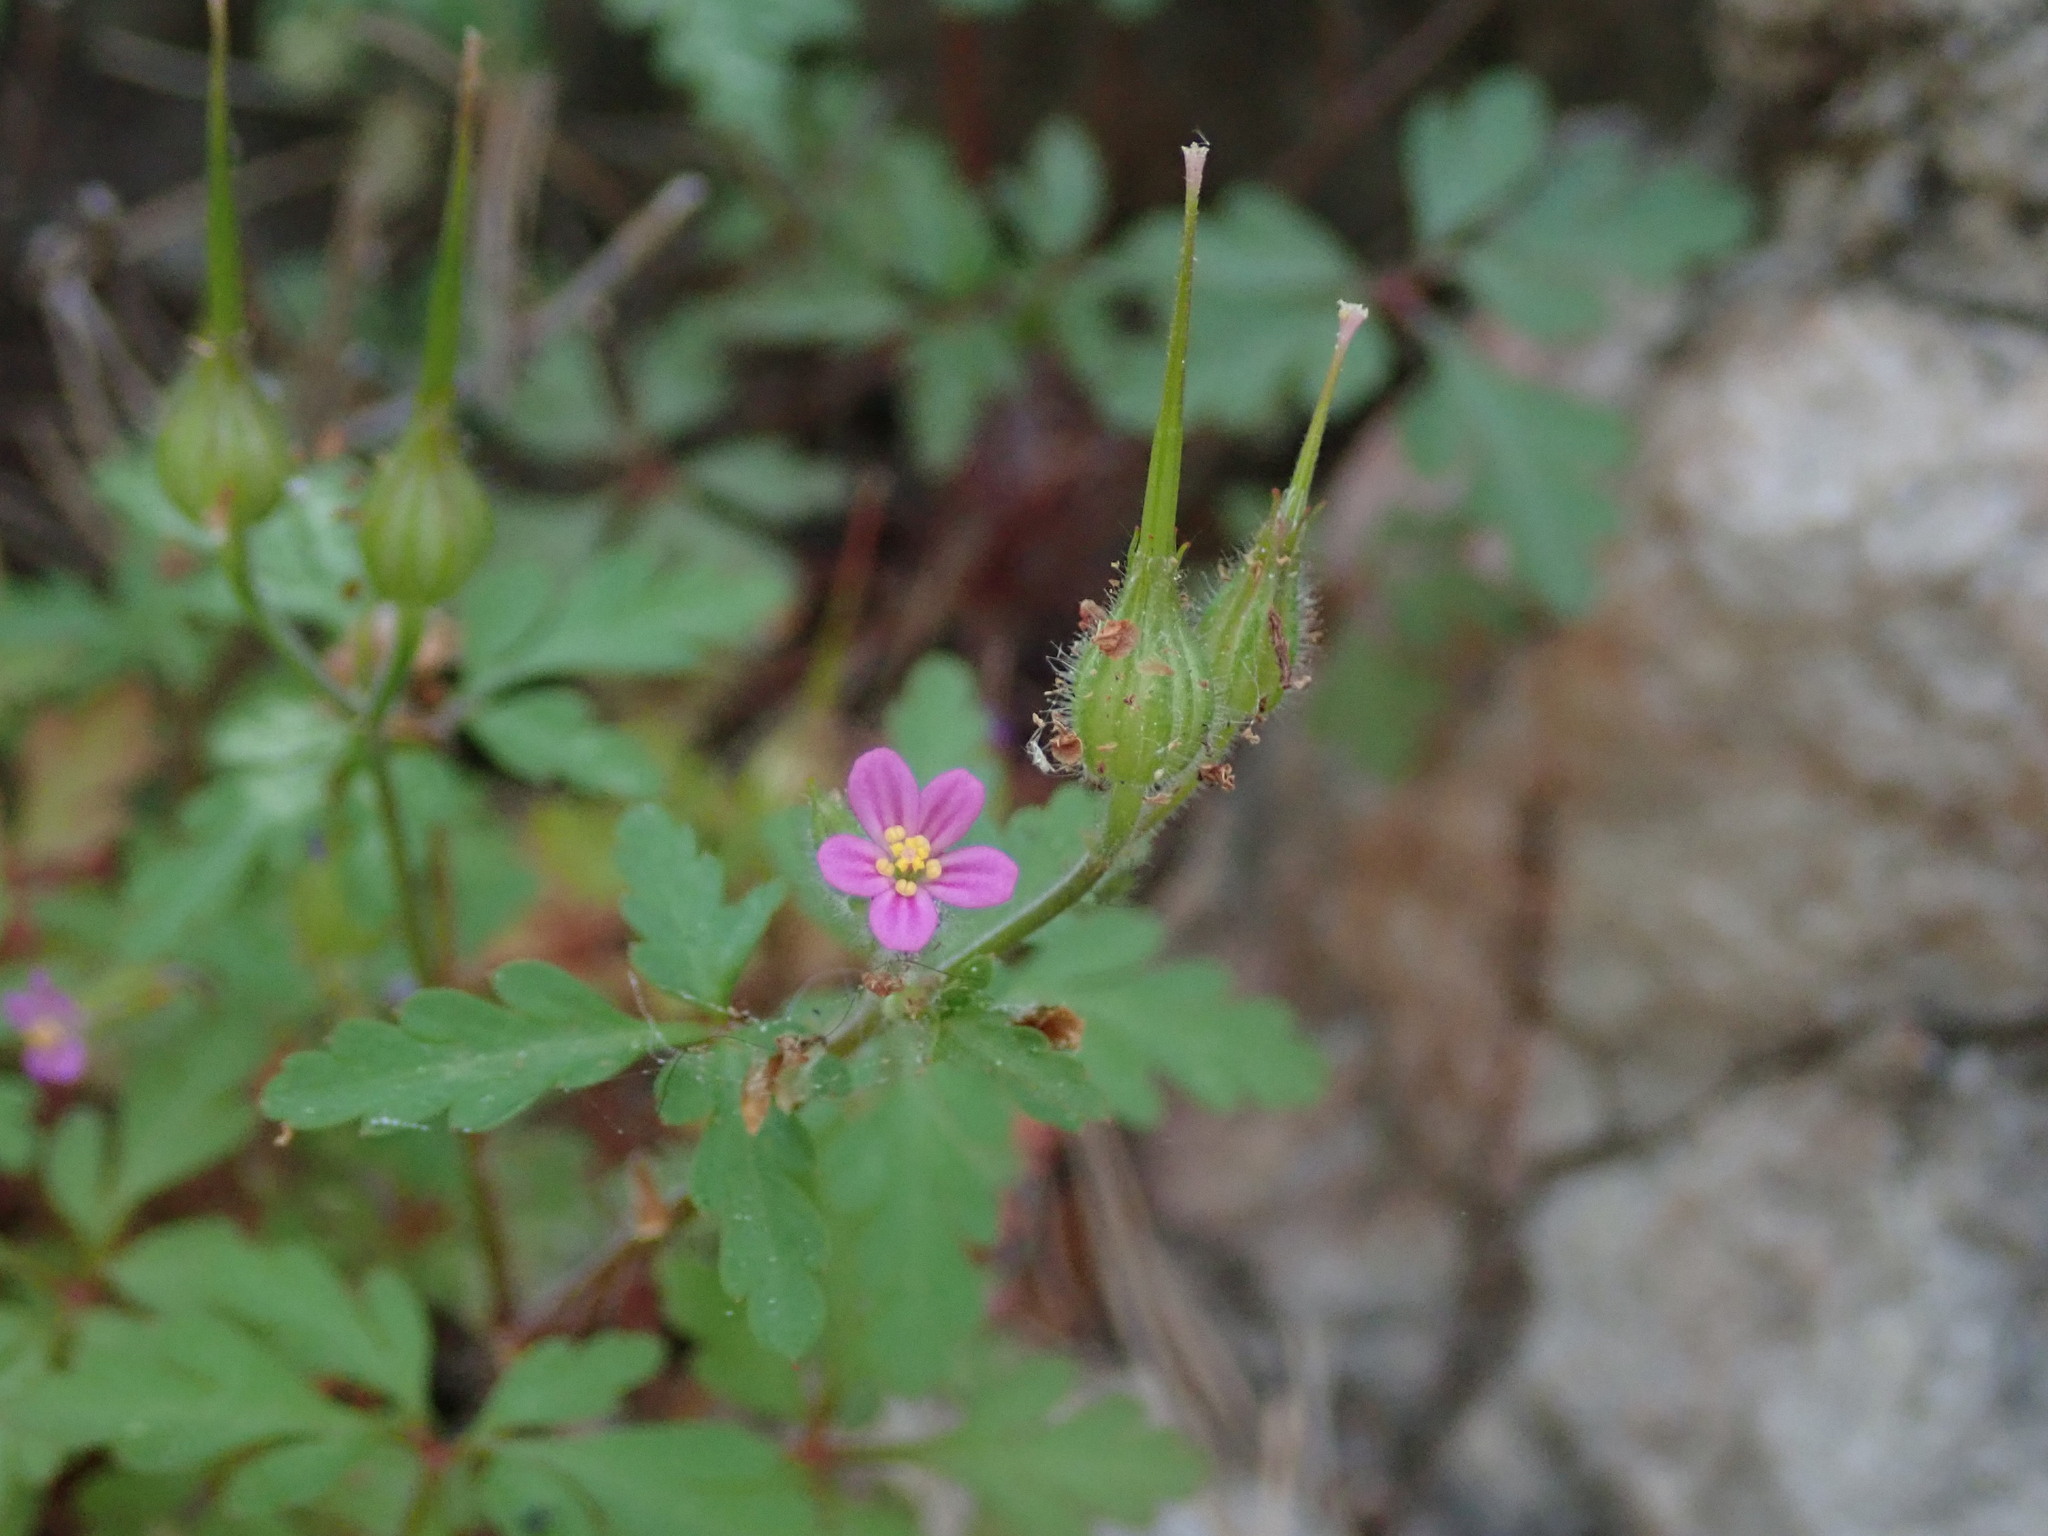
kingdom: Plantae
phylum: Tracheophyta
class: Magnoliopsida
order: Geraniales
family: Geraniaceae
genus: Geranium
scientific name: Geranium purpureum
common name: Little-robin
